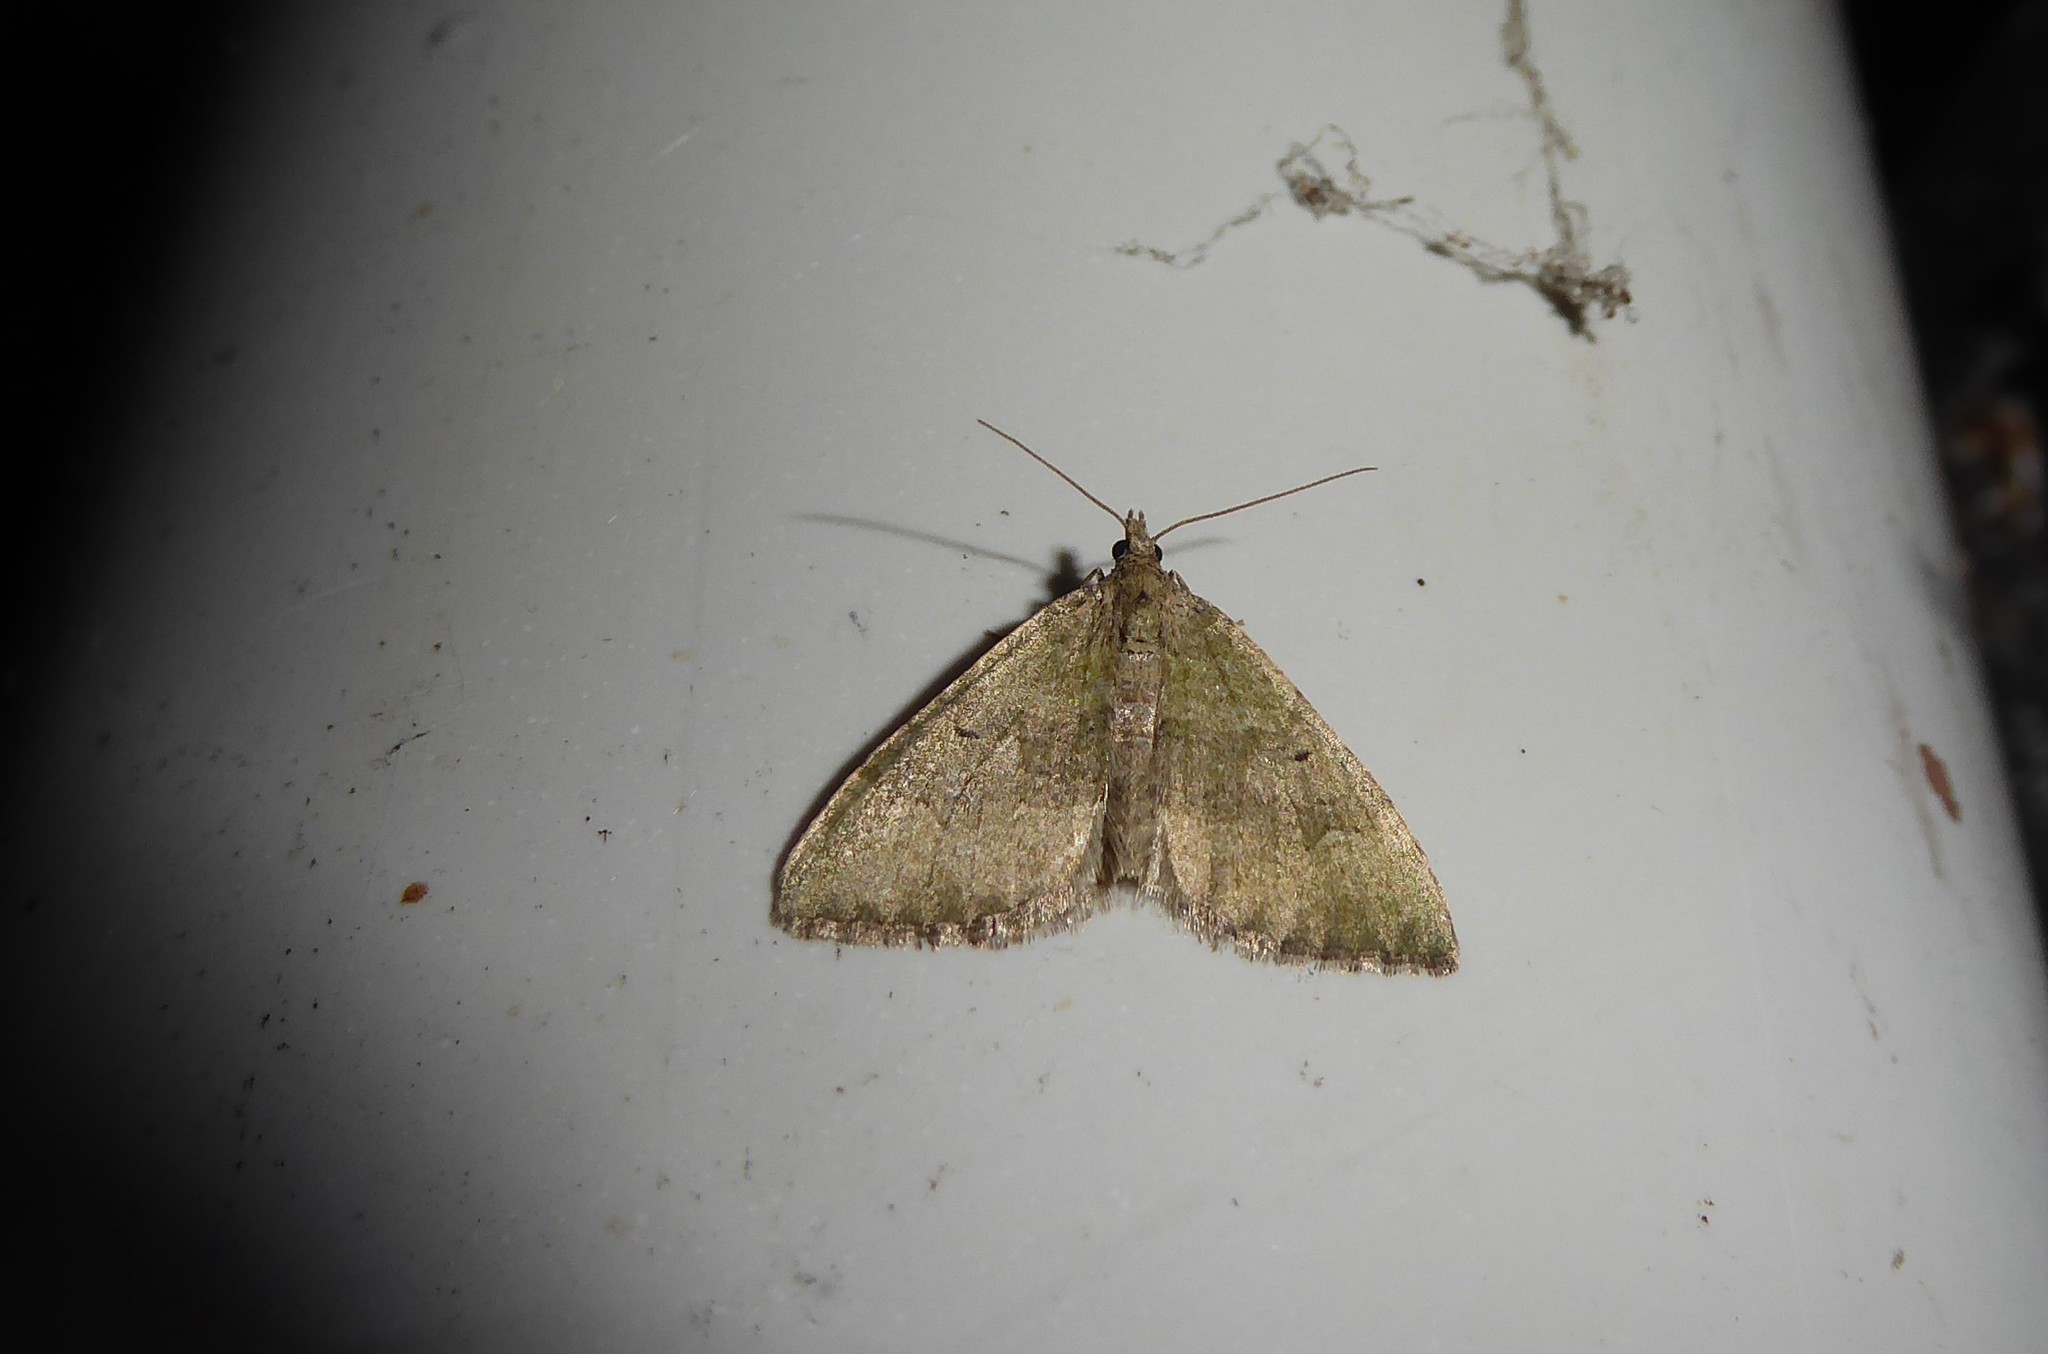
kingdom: Animalia
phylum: Arthropoda
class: Insecta
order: Lepidoptera
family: Geometridae
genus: Epyaxa
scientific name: Epyaxa rosearia
